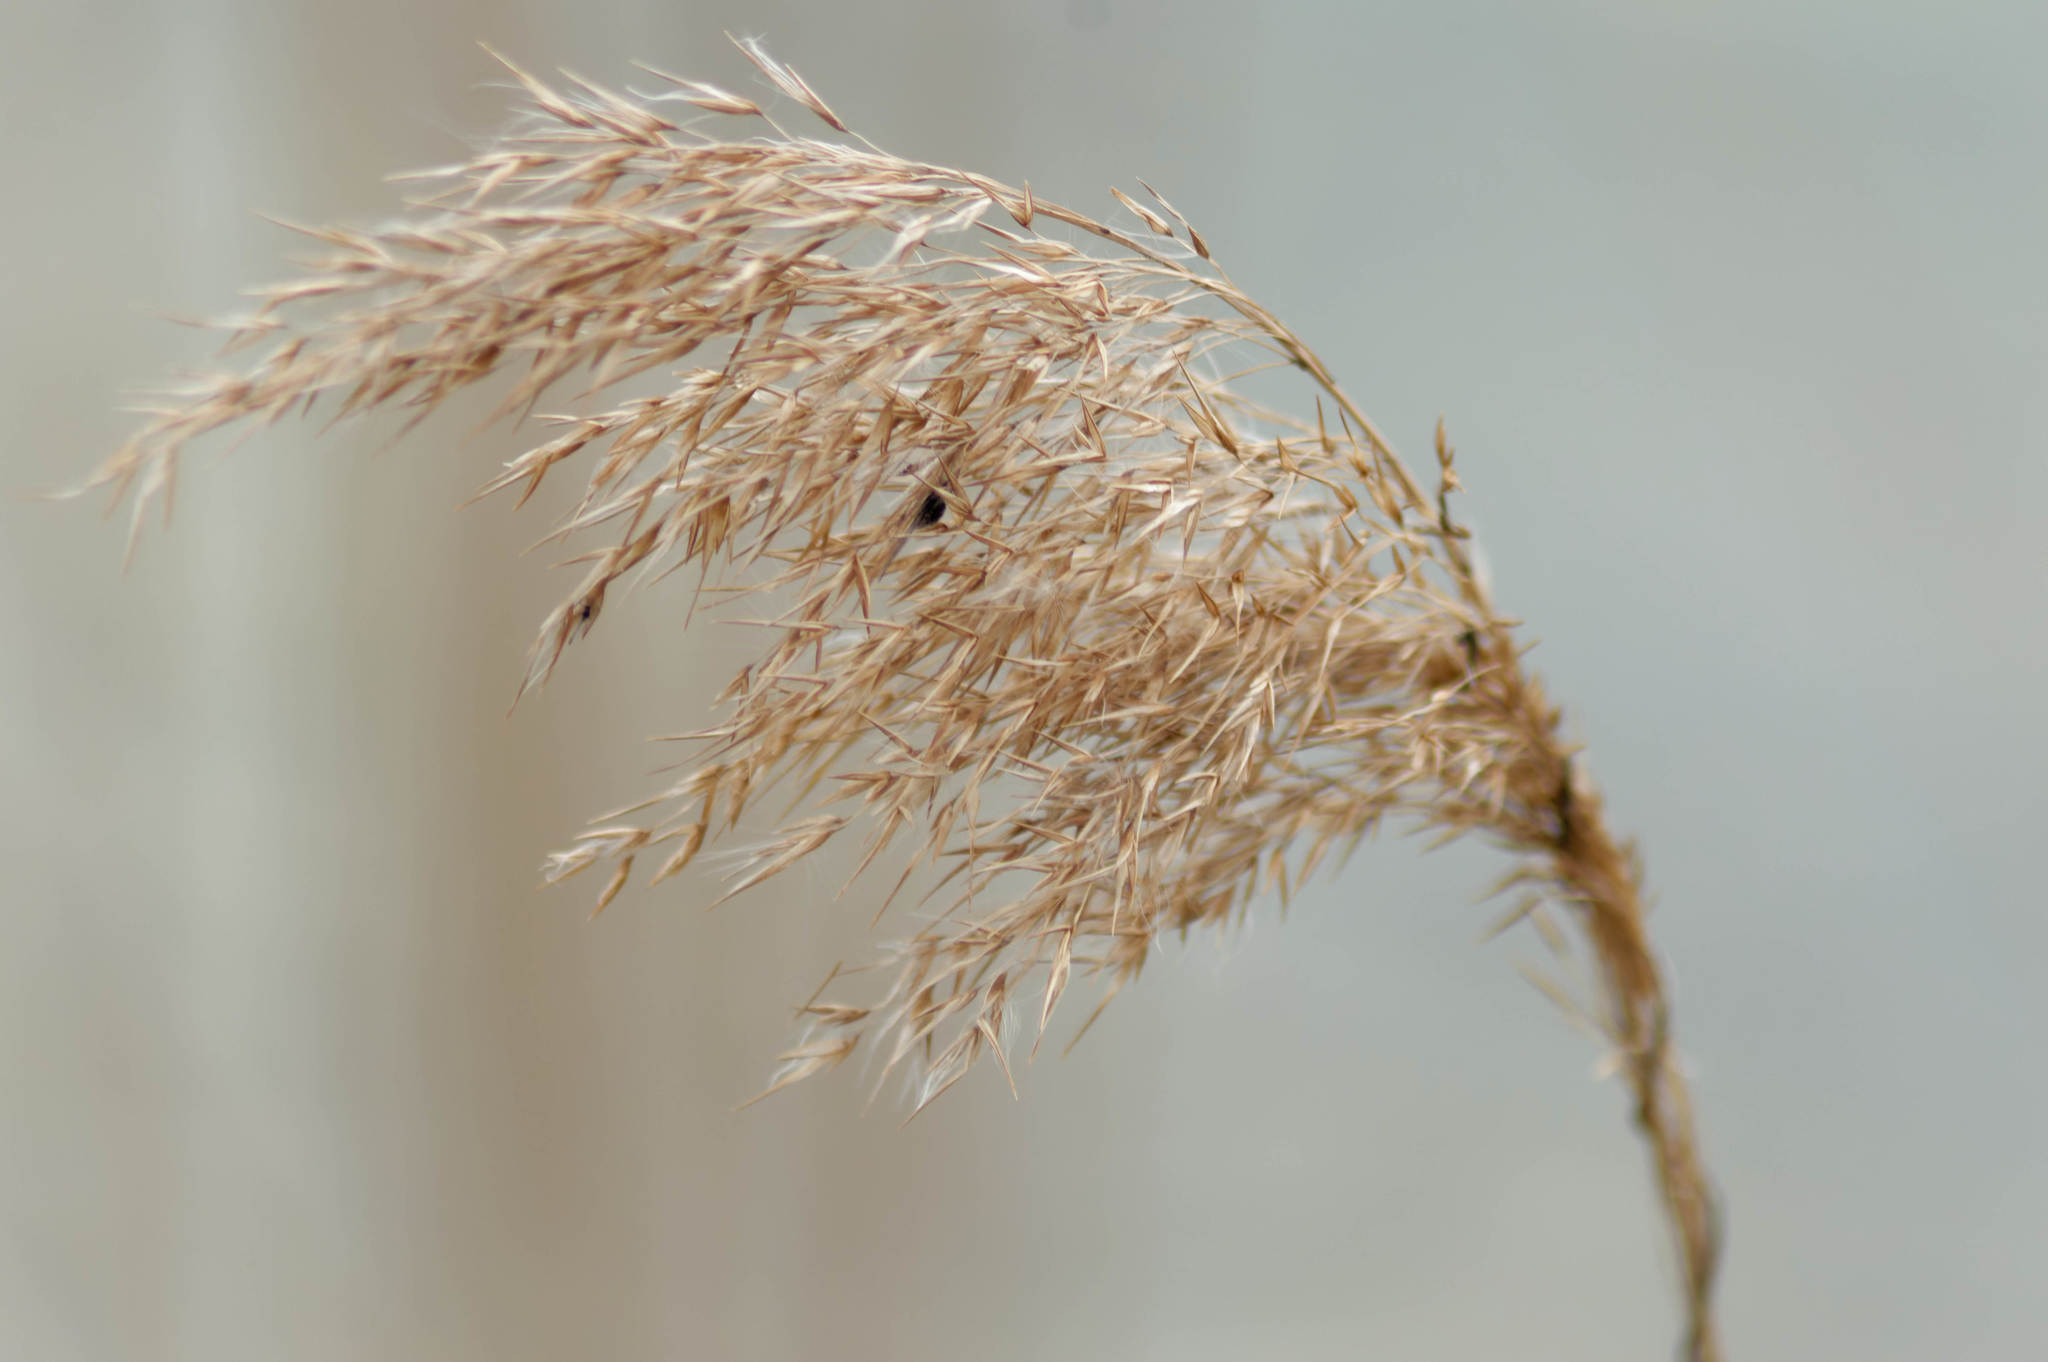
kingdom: Plantae
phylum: Tracheophyta
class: Liliopsida
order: Poales
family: Poaceae
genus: Phragmites
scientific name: Phragmites australis
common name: Common reed
